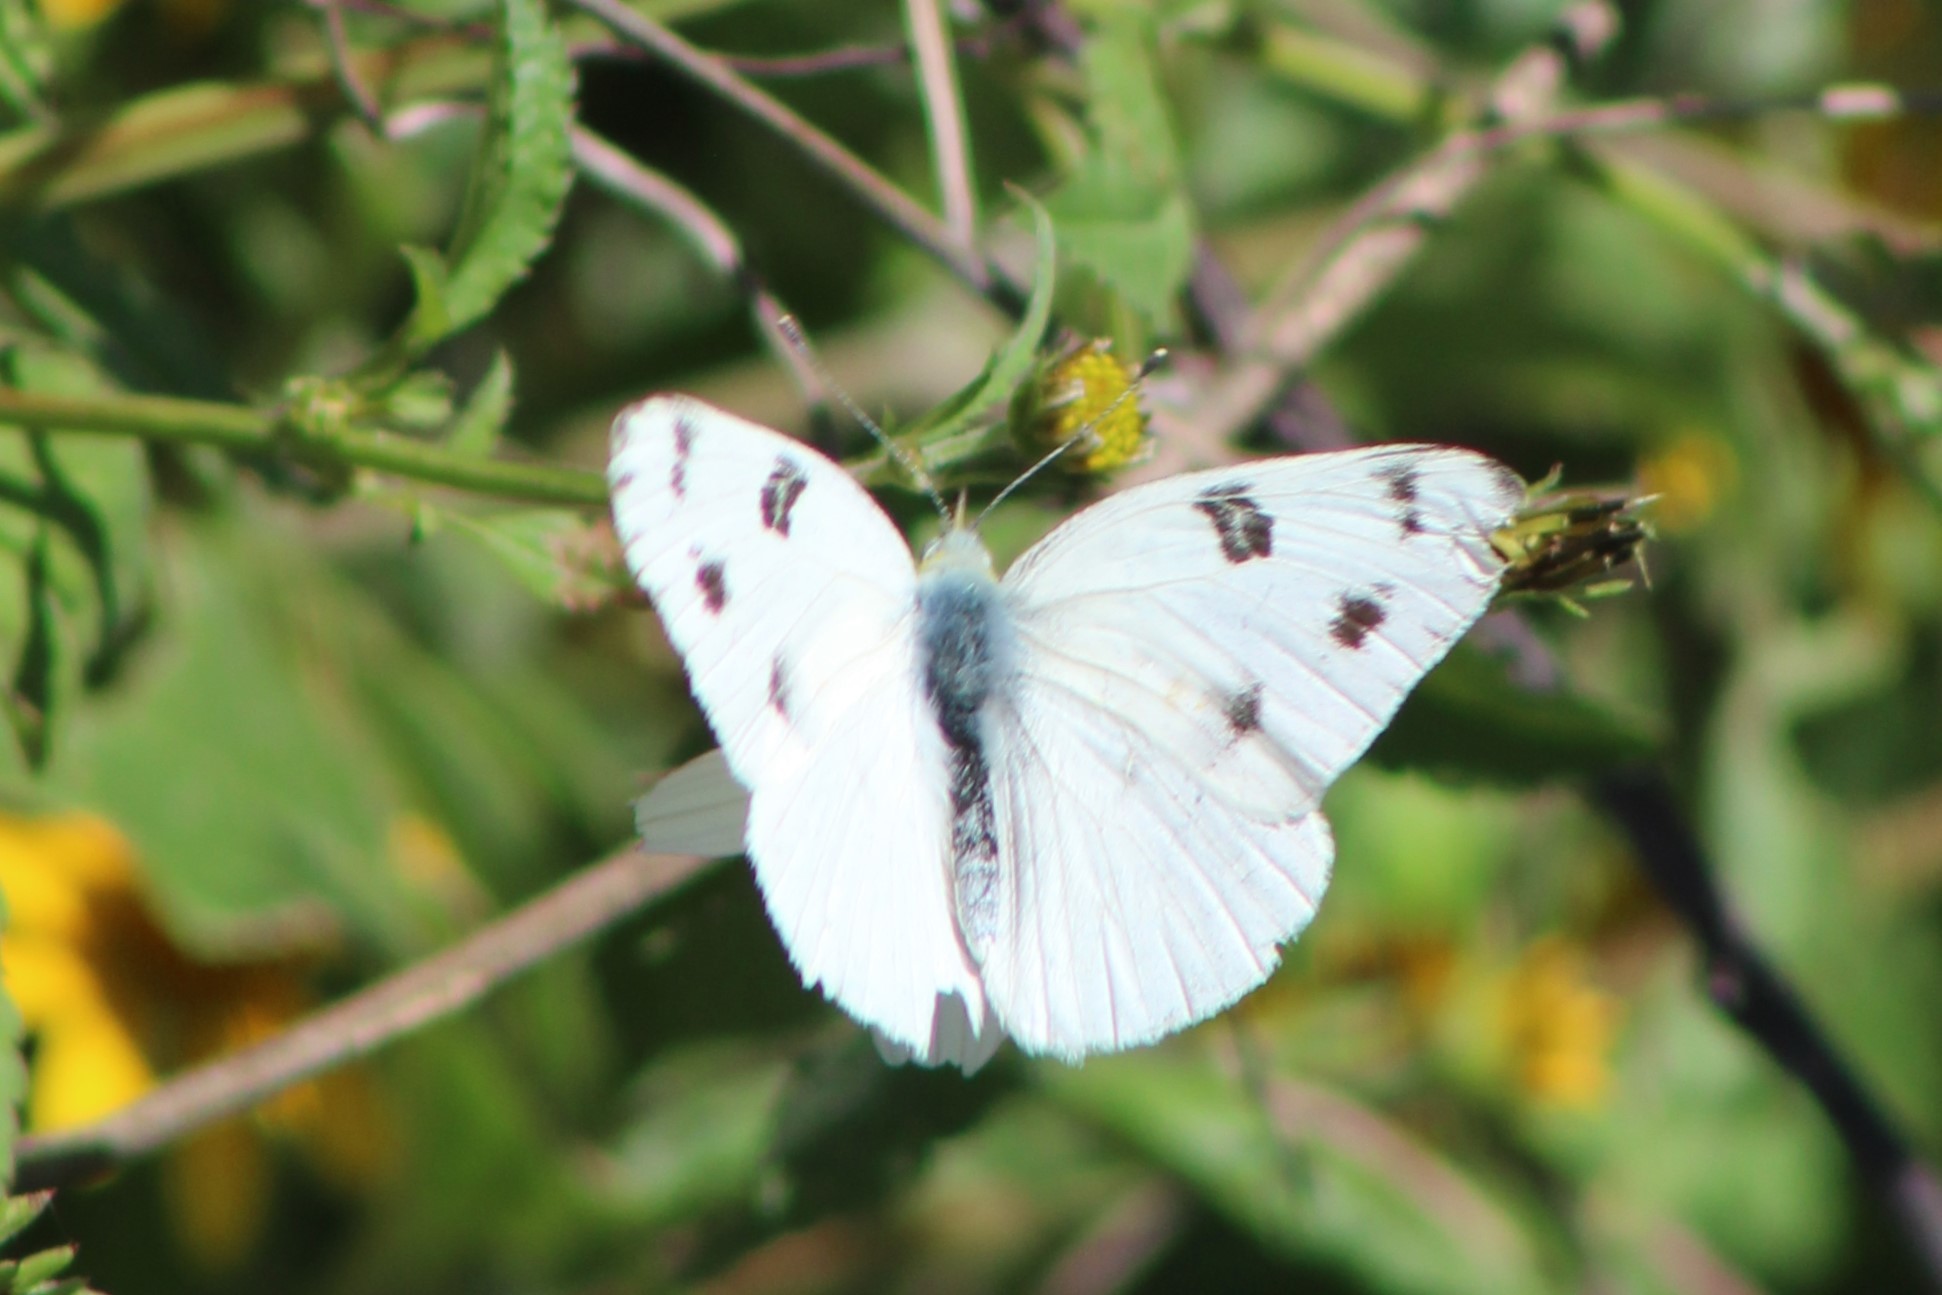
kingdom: Animalia
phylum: Arthropoda
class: Insecta
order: Lepidoptera
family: Pieridae
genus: Pontia
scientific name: Pontia protodice
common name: Checkered white
